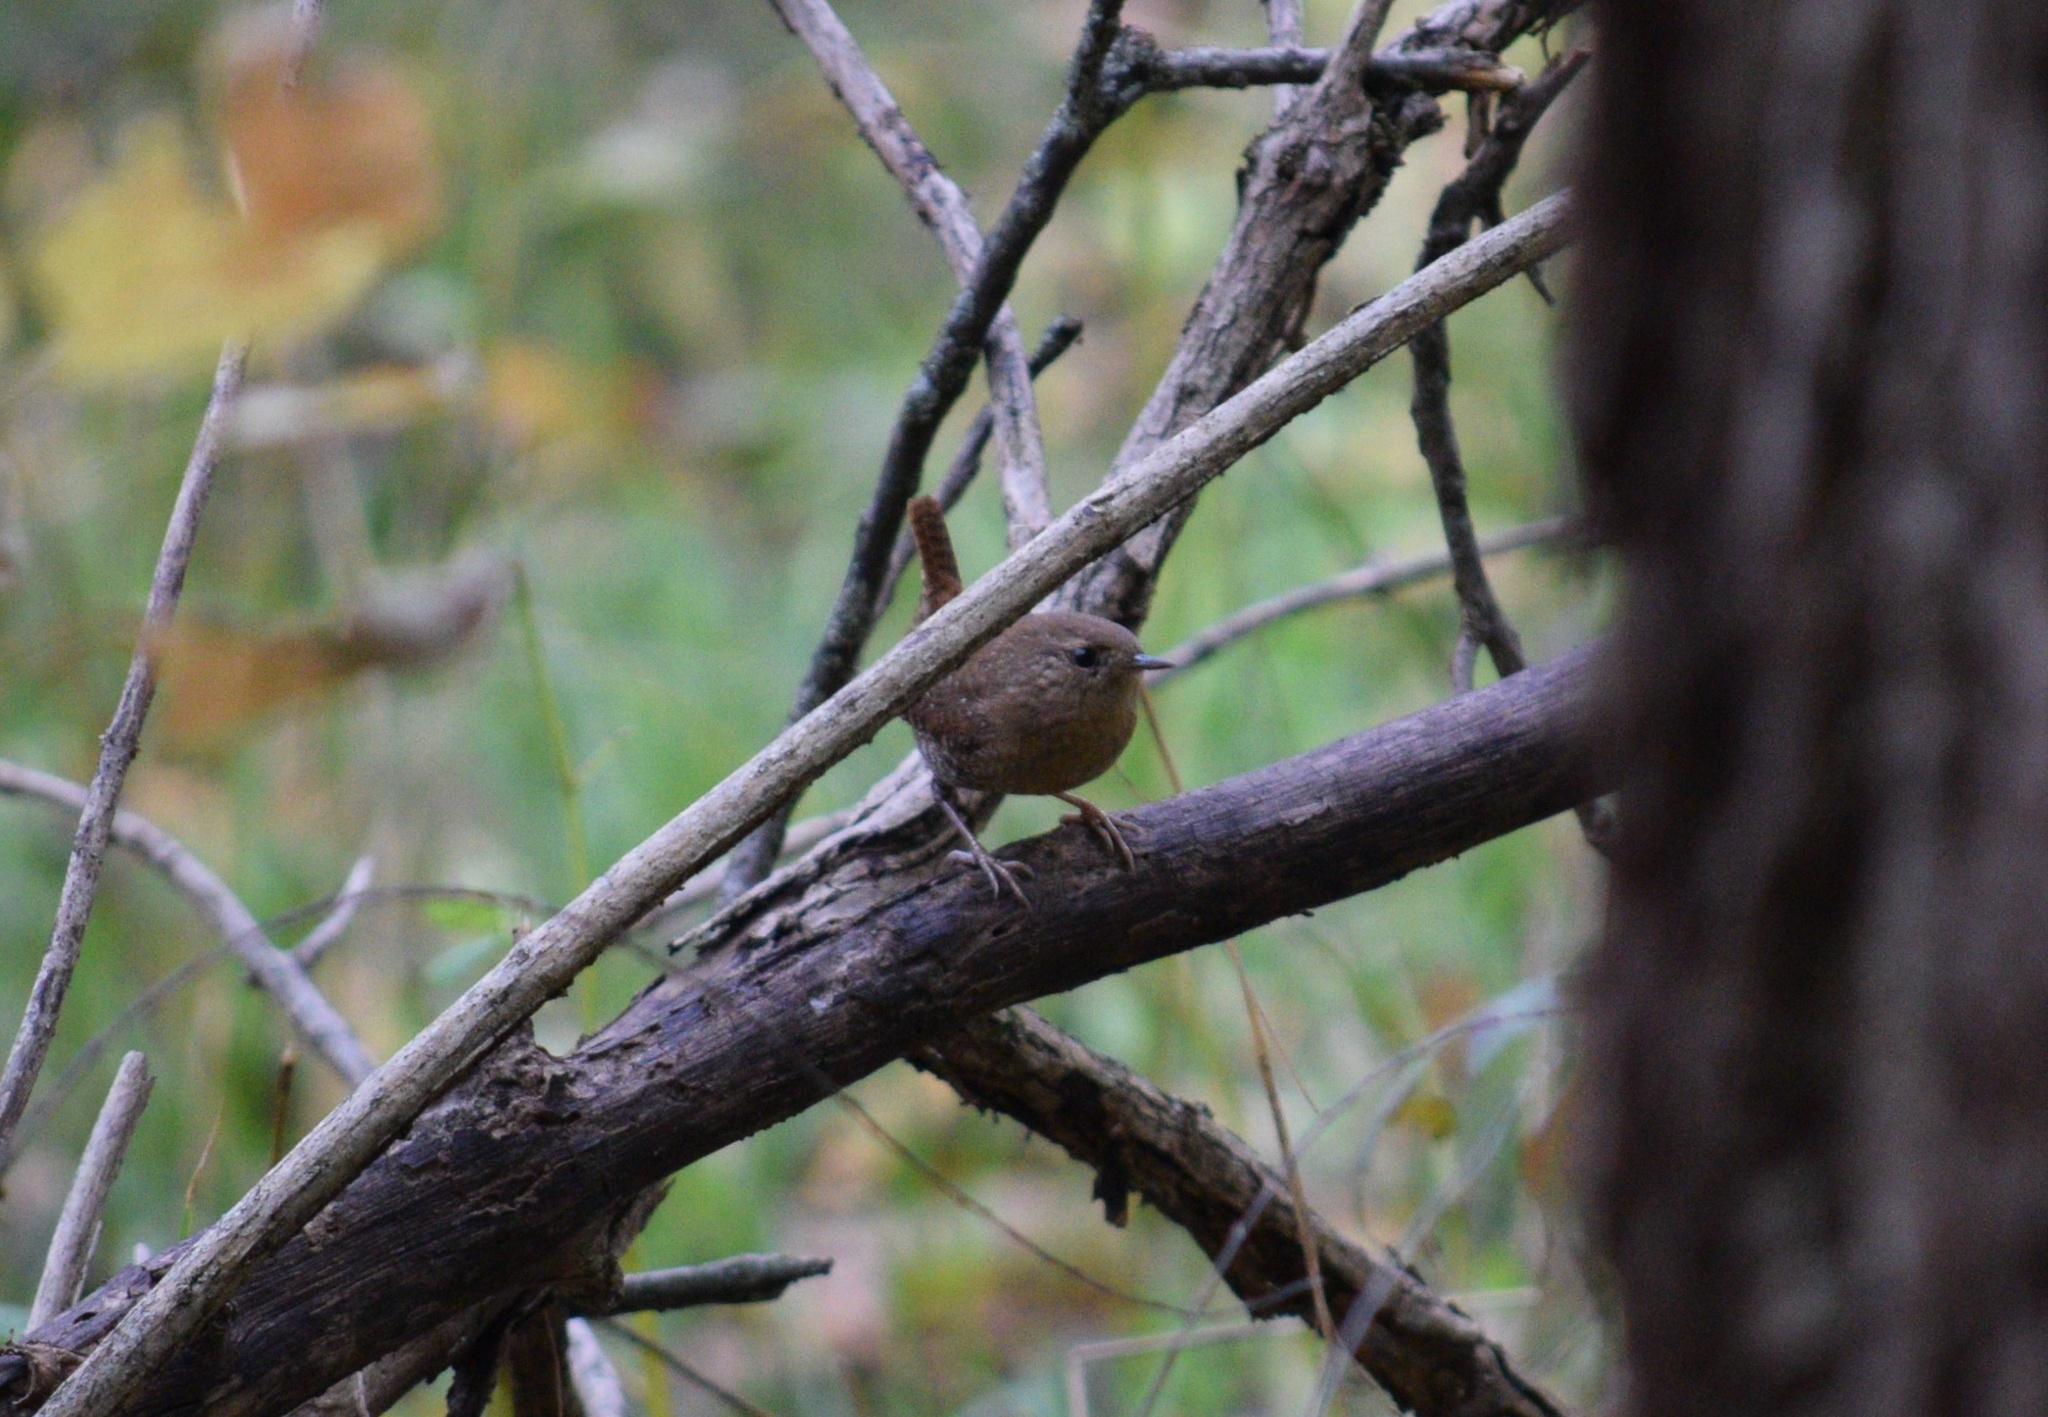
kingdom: Animalia
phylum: Chordata
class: Aves
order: Passeriformes
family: Troglodytidae
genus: Troglodytes
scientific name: Troglodytes hiemalis
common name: Winter wren
